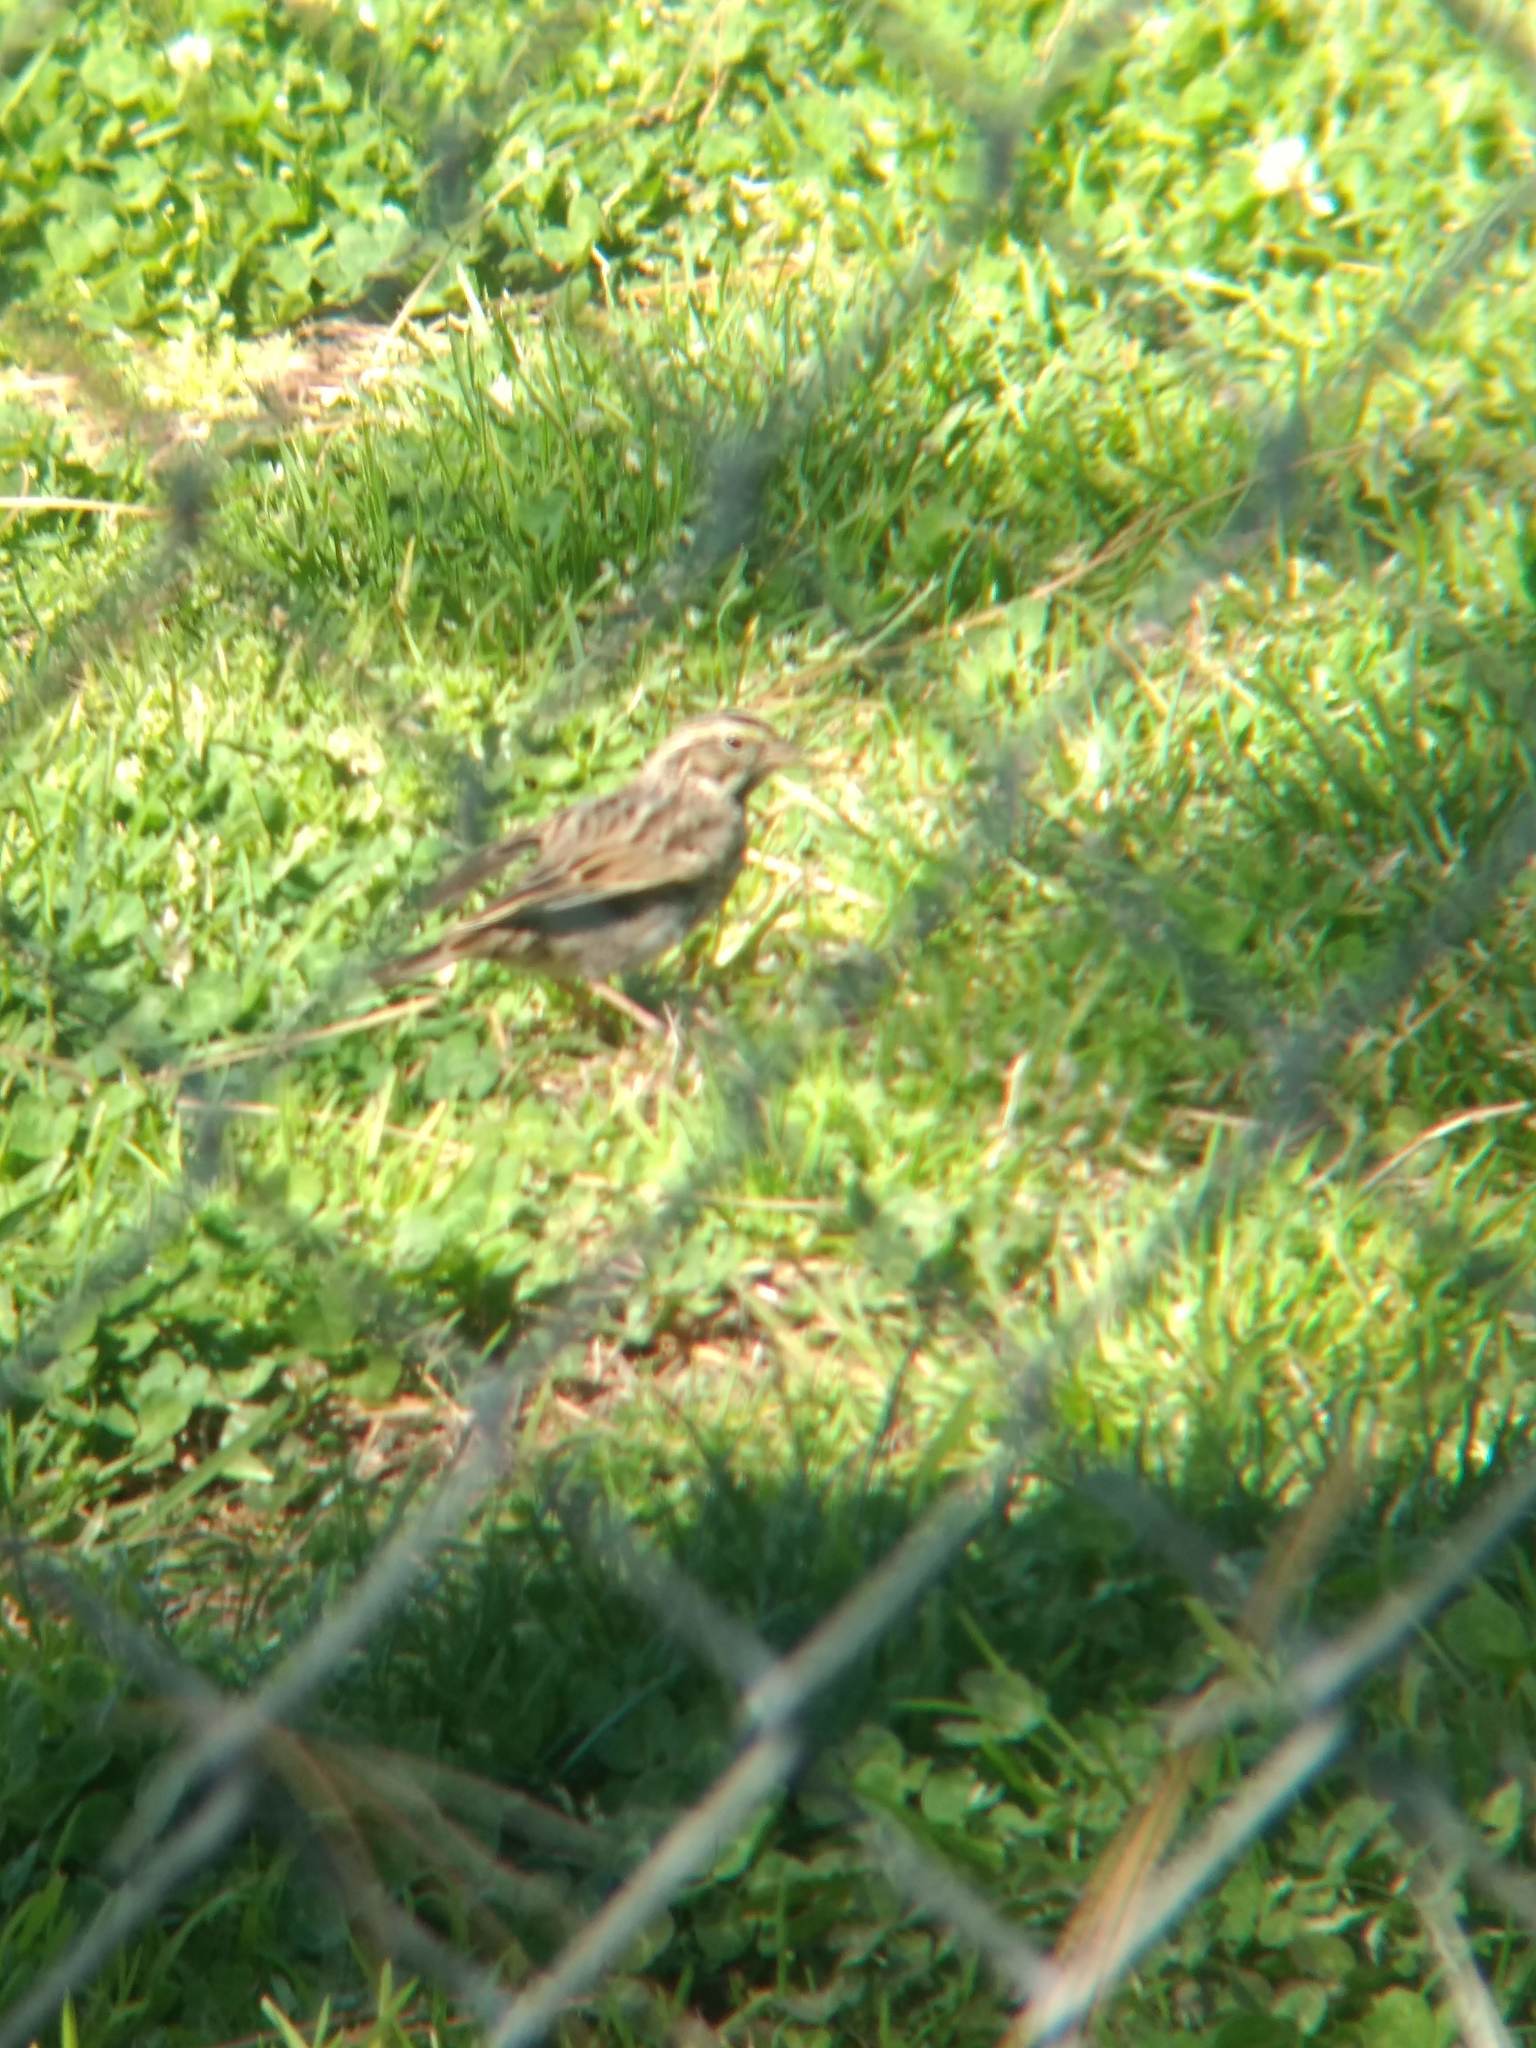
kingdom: Animalia
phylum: Chordata
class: Aves
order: Passeriformes
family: Passerellidae
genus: Passerculus
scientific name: Passerculus sandwichensis
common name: Savannah sparrow
